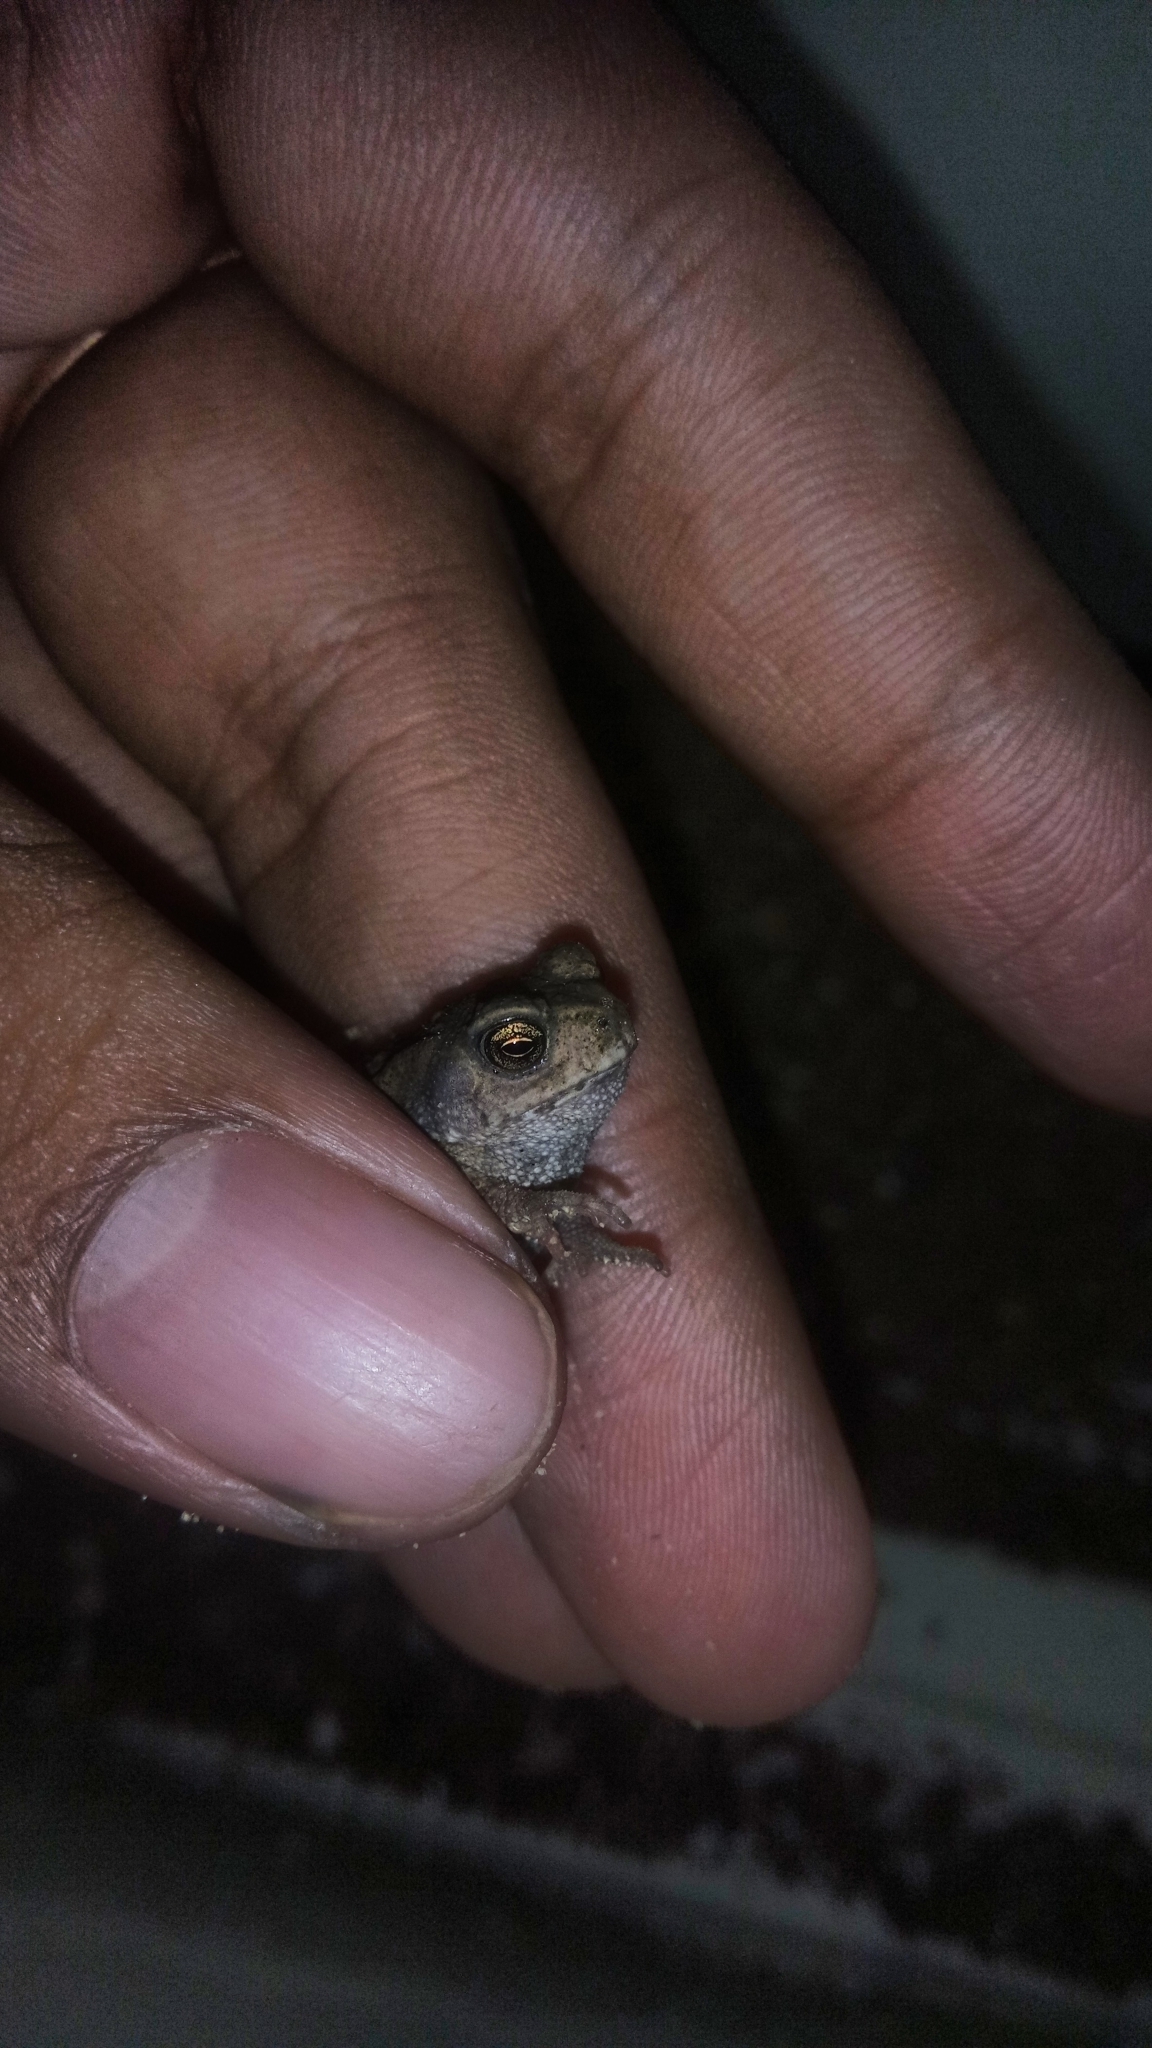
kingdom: Animalia
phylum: Chordata
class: Amphibia
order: Anura
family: Bufonidae
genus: Duttaphrynus
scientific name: Duttaphrynus melanostictus
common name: Common sunda toad
